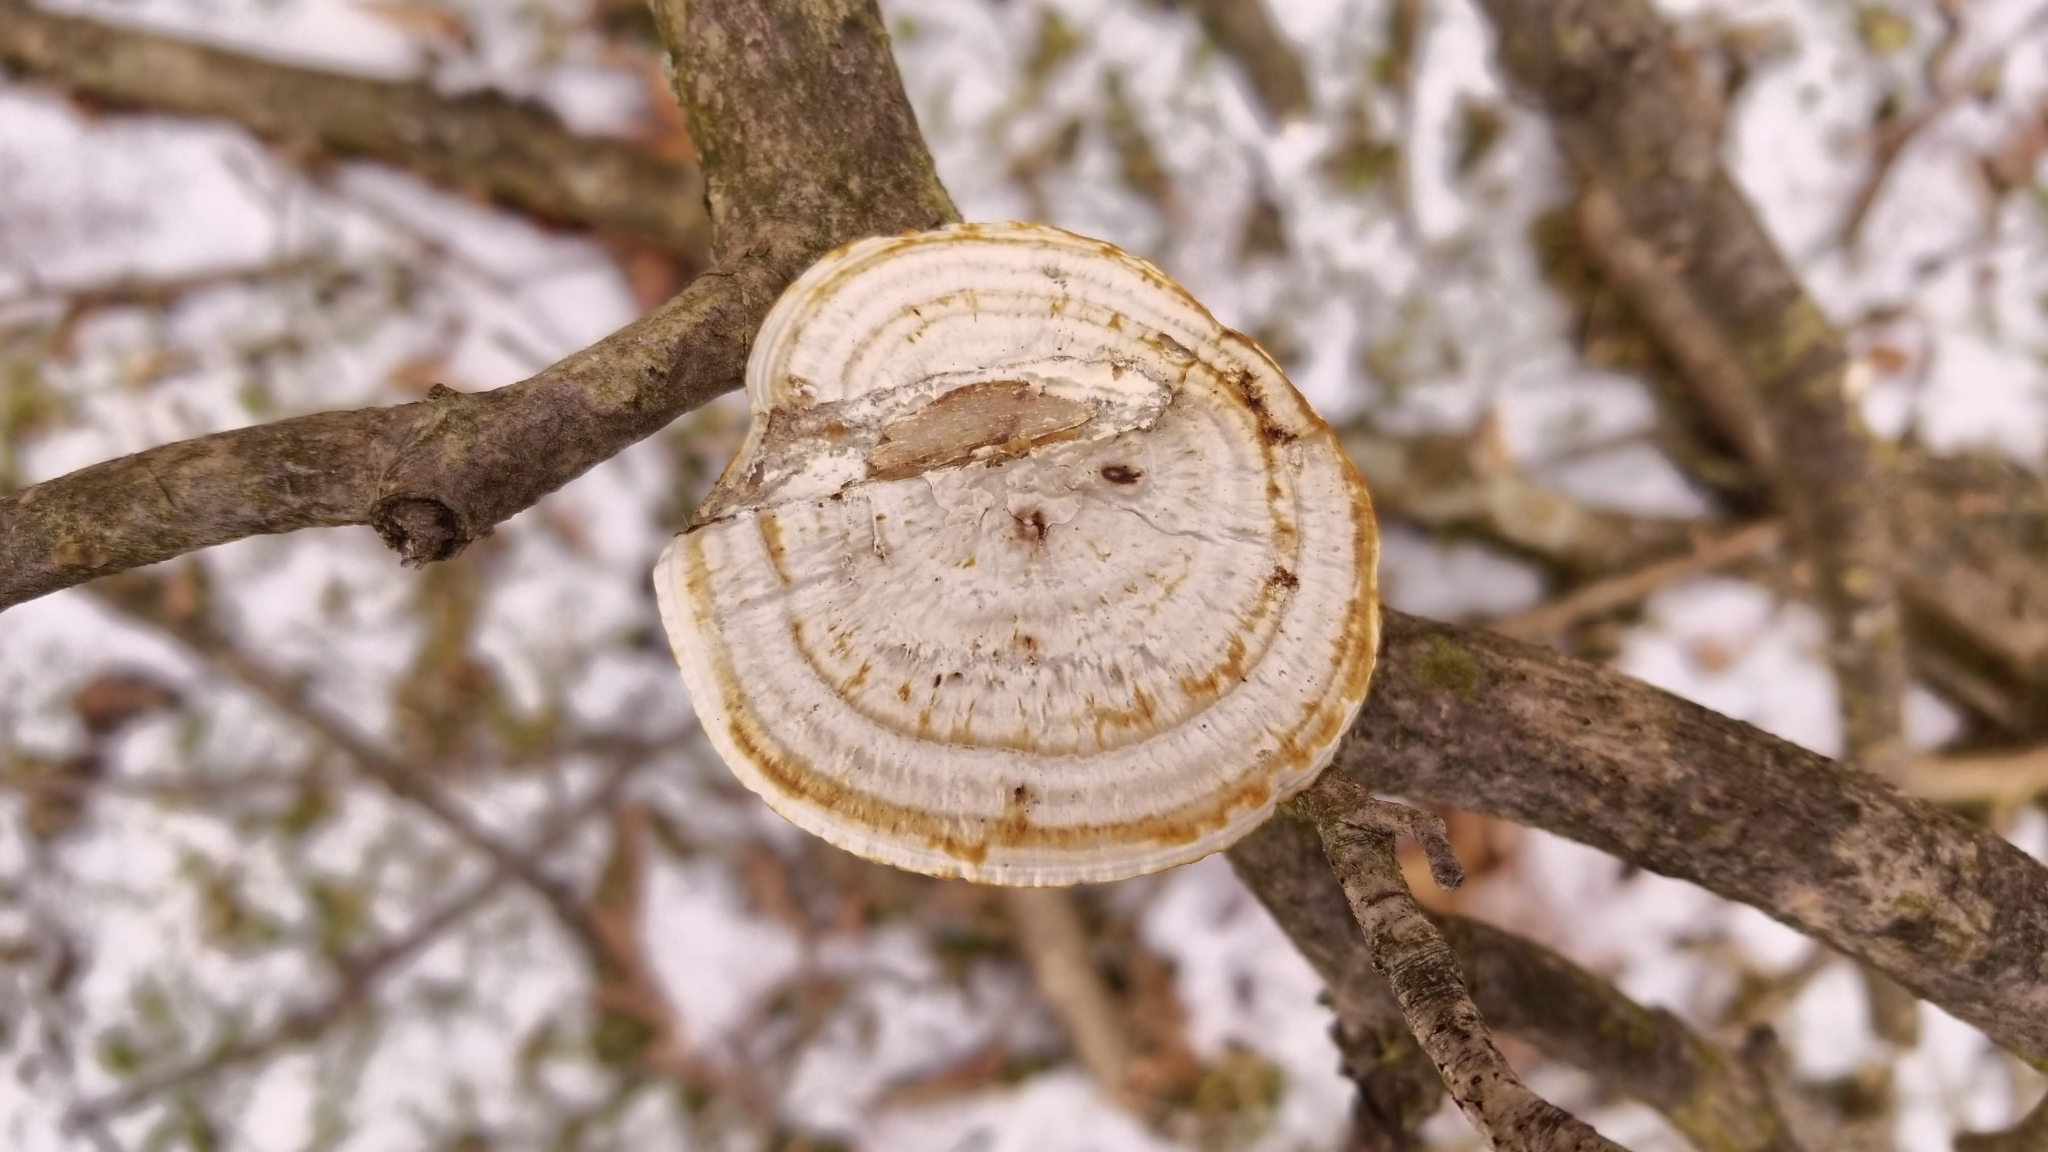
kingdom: Fungi
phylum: Basidiomycota
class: Agaricomycetes
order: Polyporales
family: Polyporaceae
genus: Daedaleopsis
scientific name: Daedaleopsis confragosa
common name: Blushing bracket
